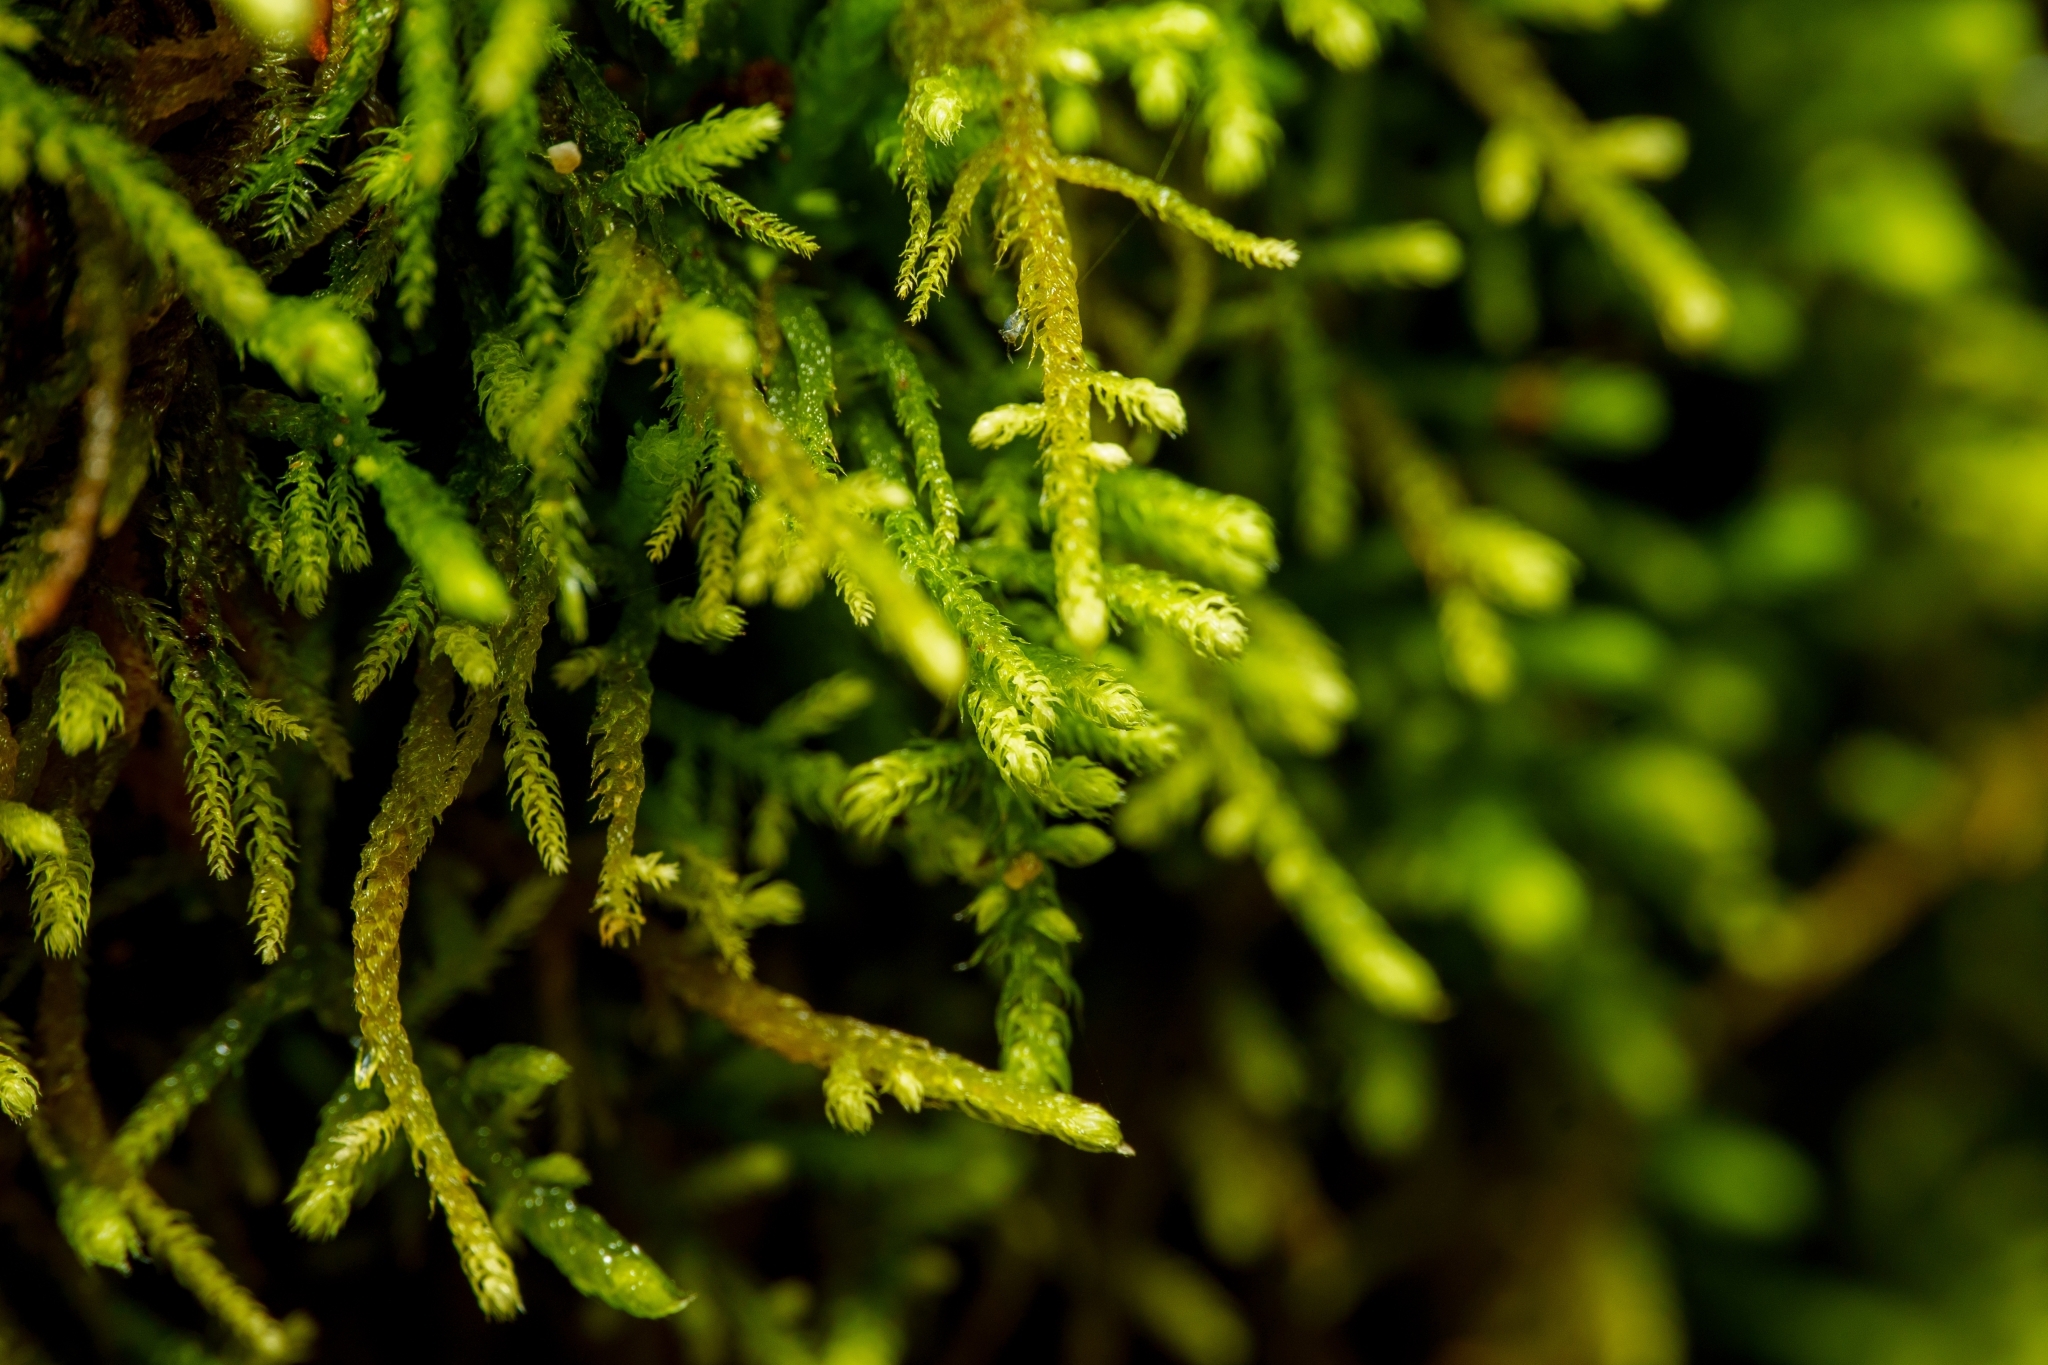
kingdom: Plantae
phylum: Bryophyta
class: Bryopsida
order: Hypnales
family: Brachytheciaceae
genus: Claopodium
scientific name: Claopodium crispifolium
